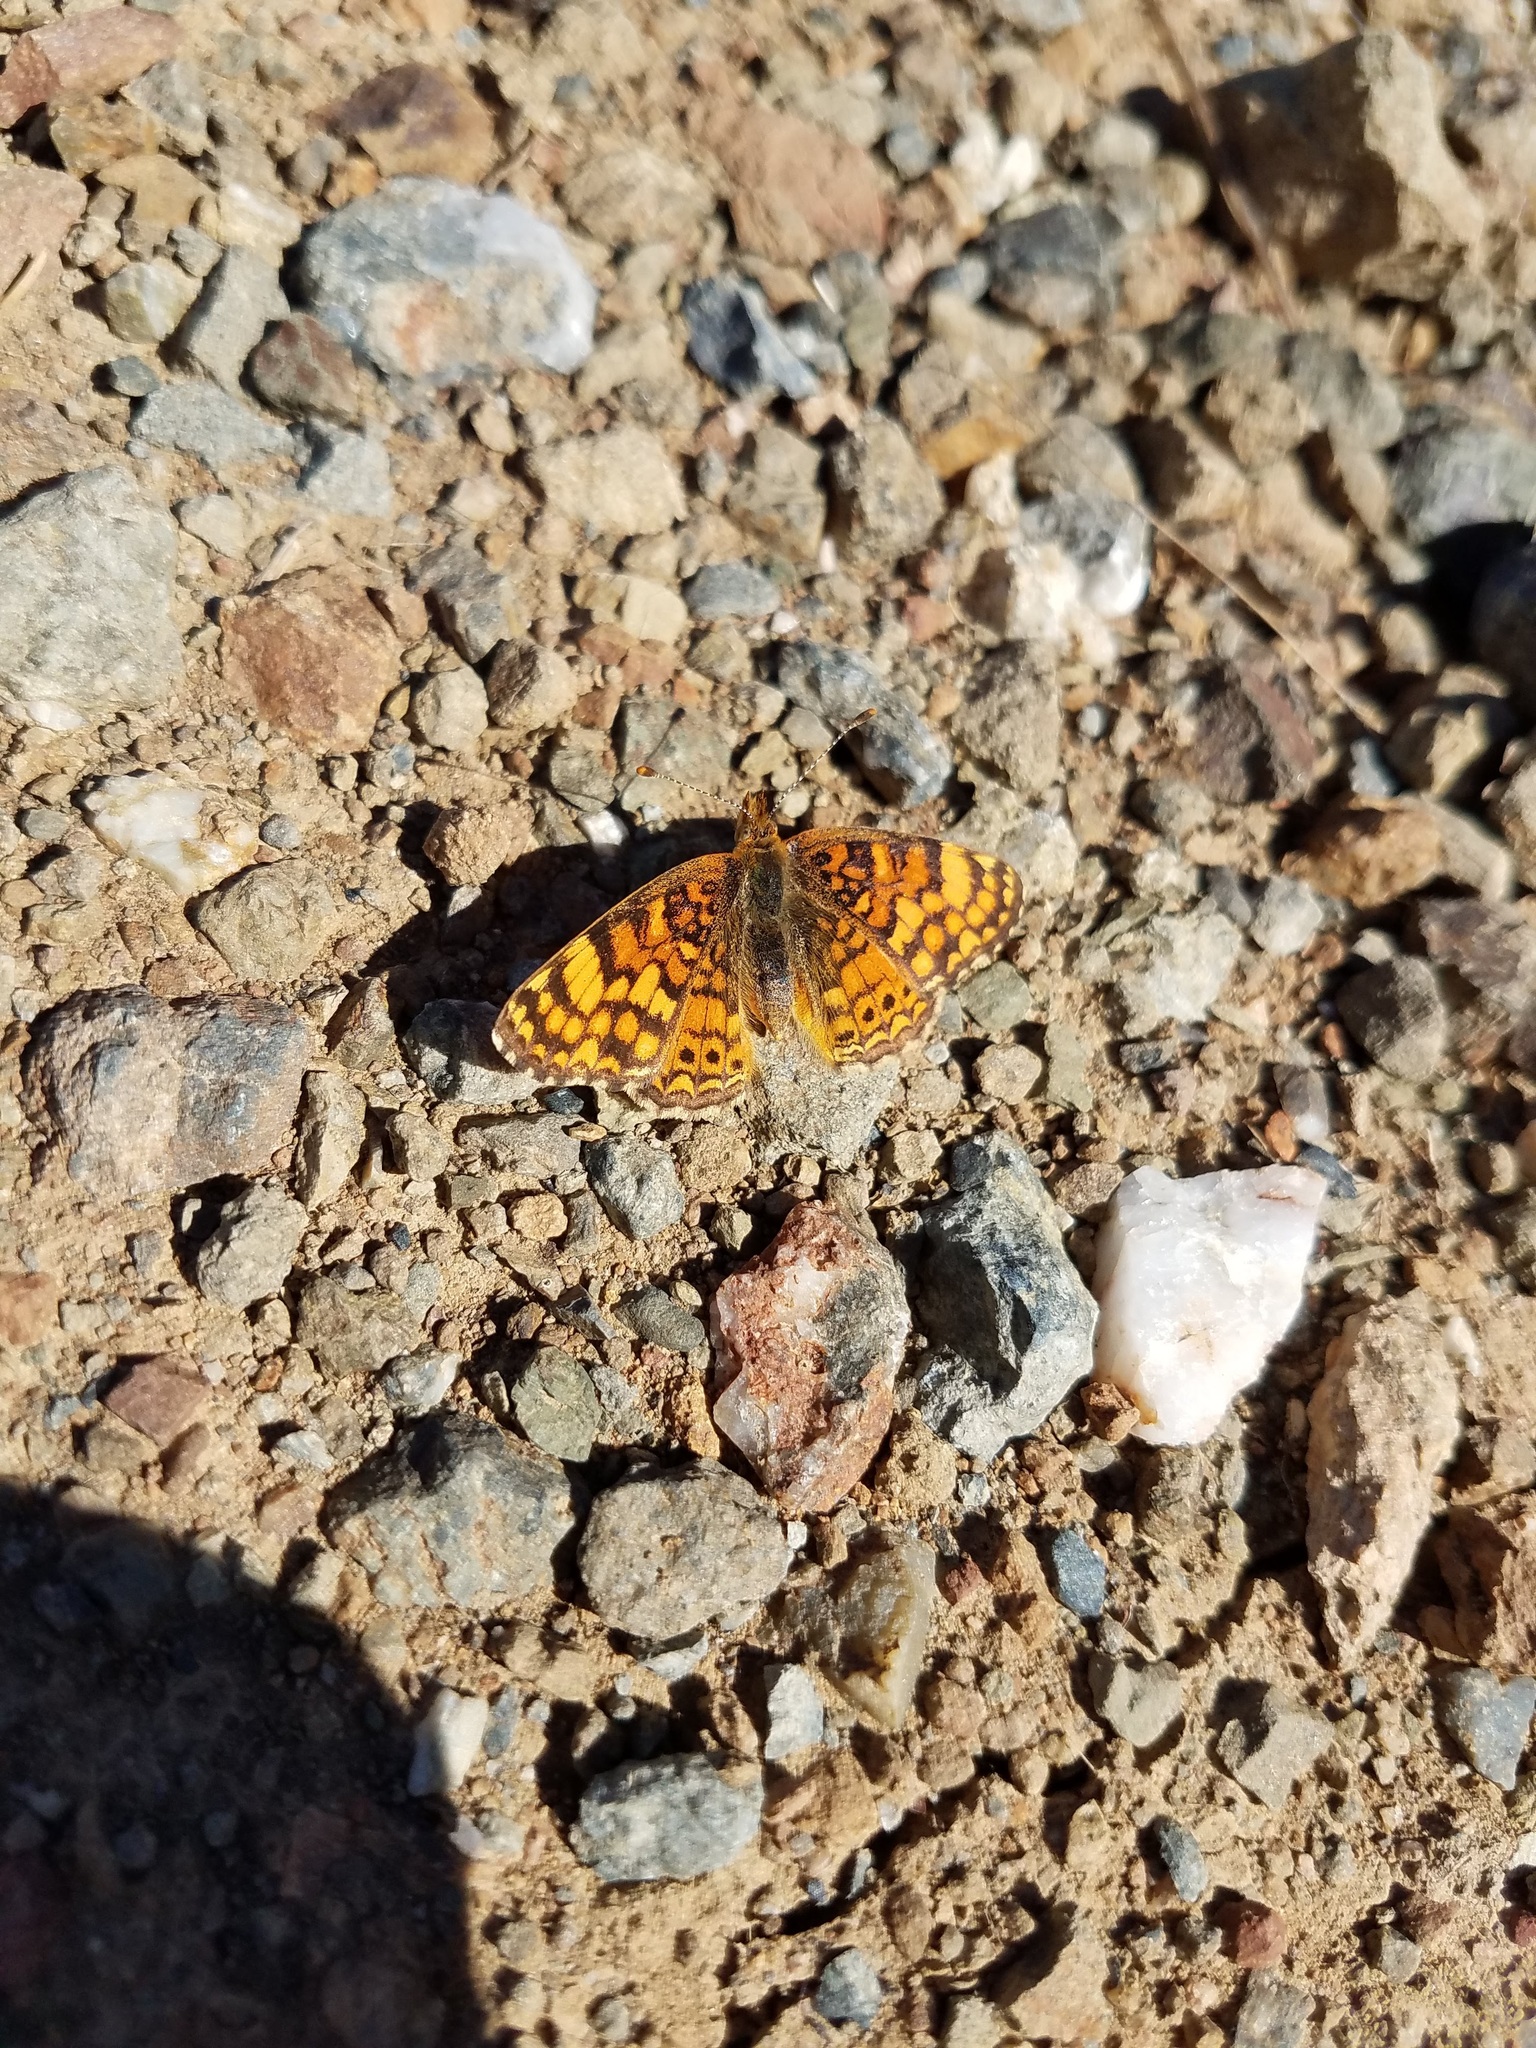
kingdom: Animalia
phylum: Arthropoda
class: Insecta
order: Lepidoptera
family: Nymphalidae
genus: Eresia
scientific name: Eresia aveyrona
